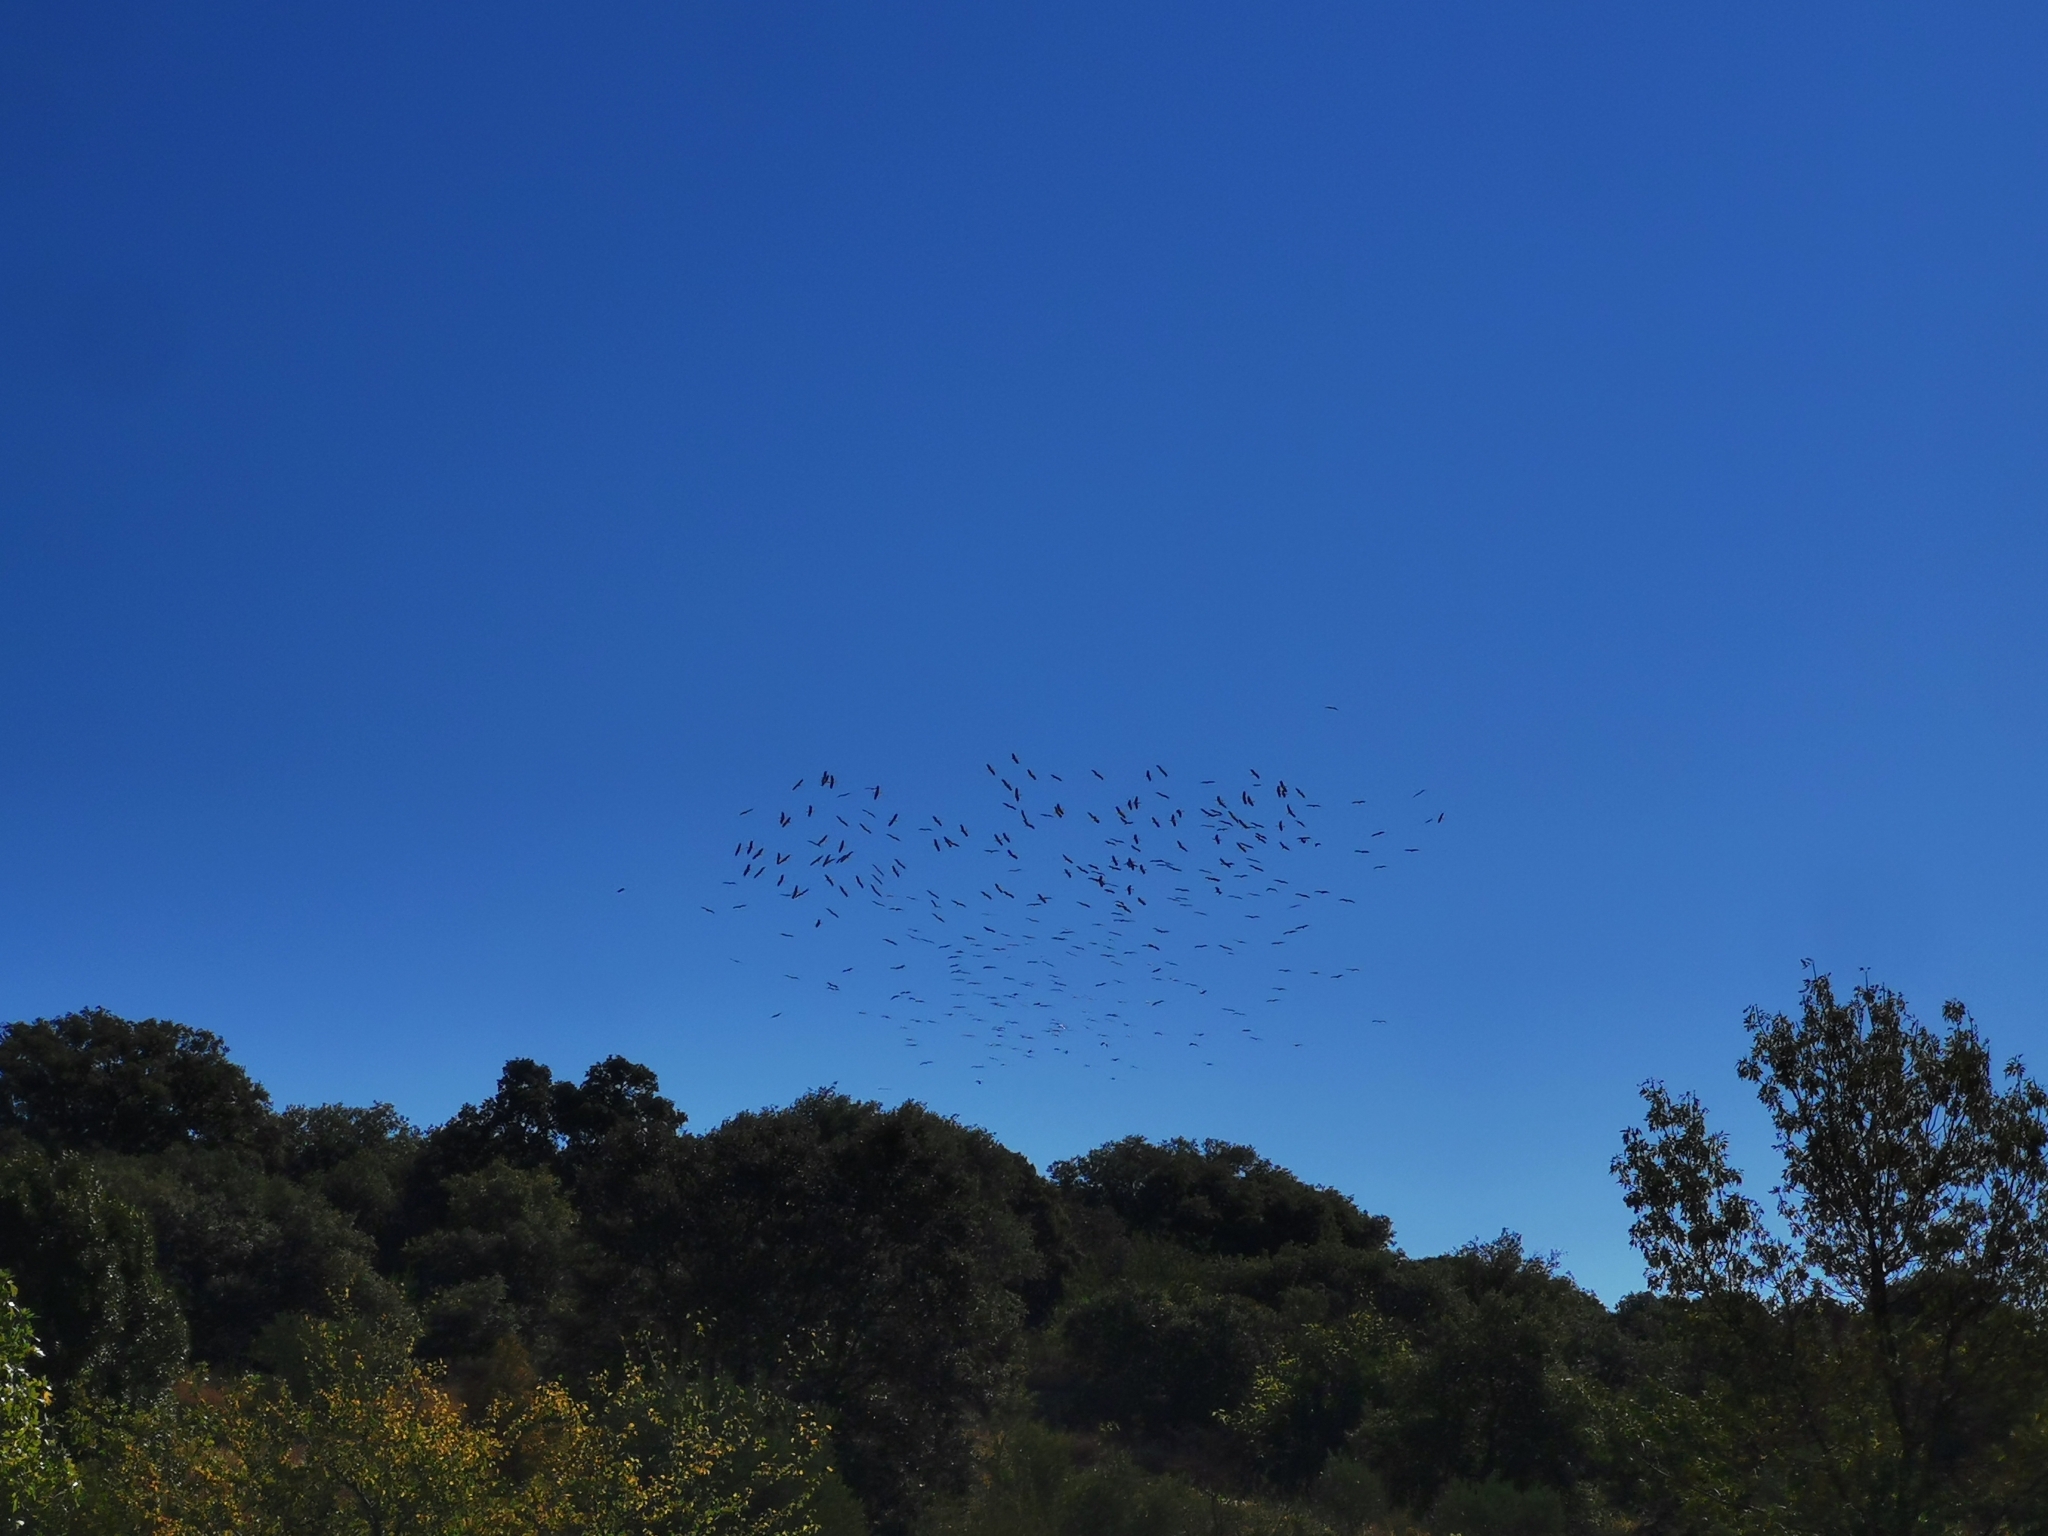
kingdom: Animalia
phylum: Chordata
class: Aves
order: Ciconiiformes
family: Ciconiidae
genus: Ciconia
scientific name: Ciconia ciconia
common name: White stork
